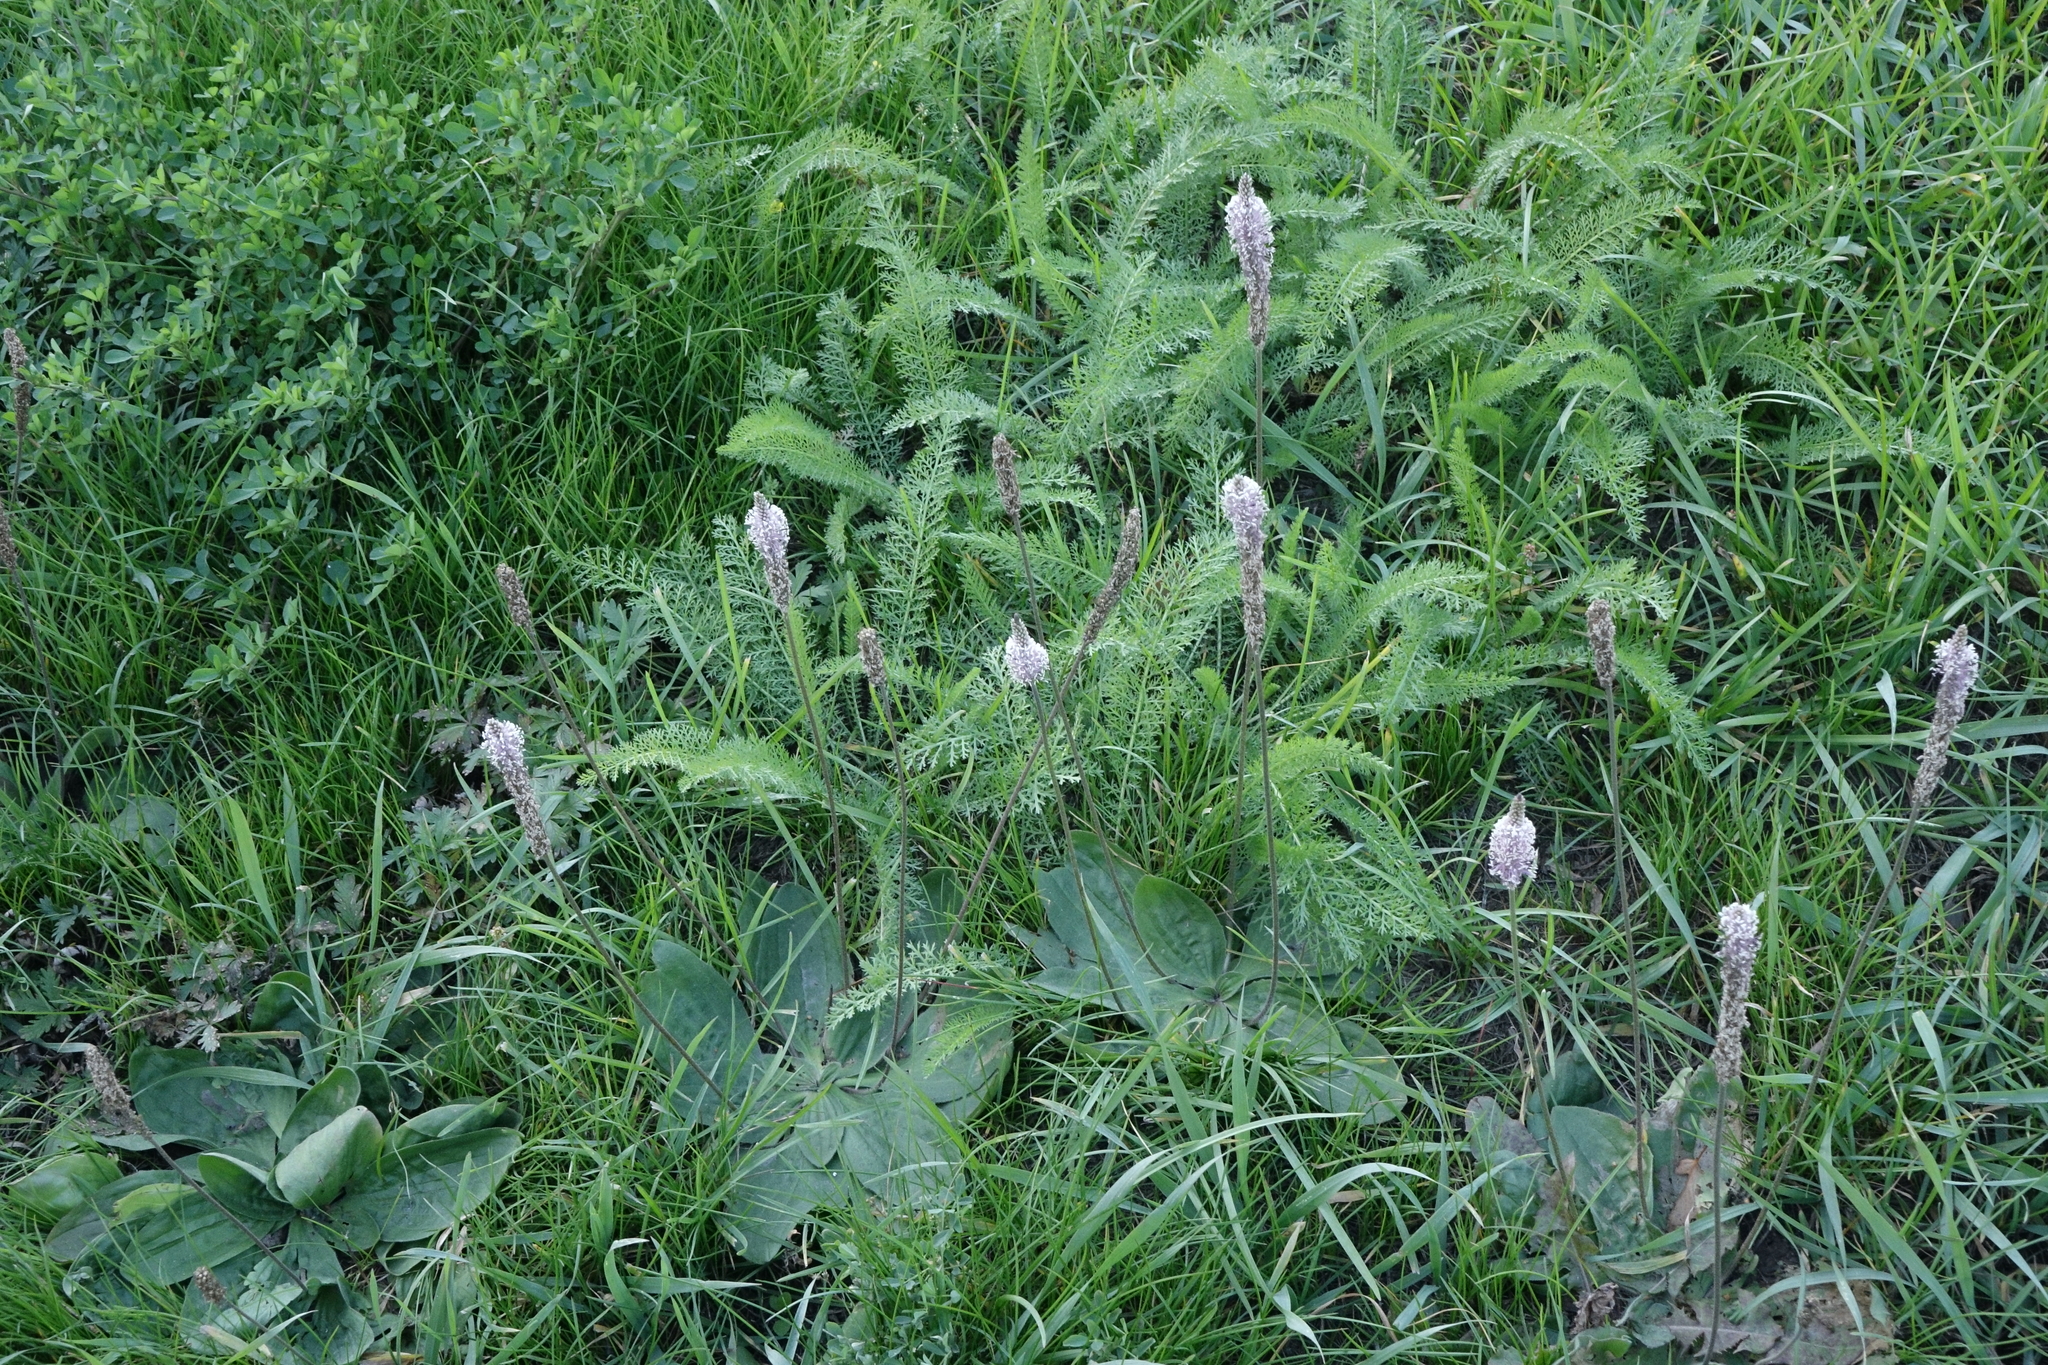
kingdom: Plantae
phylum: Tracheophyta
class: Magnoliopsida
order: Lamiales
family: Plantaginaceae
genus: Plantago
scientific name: Plantago media
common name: Hoary plantain
